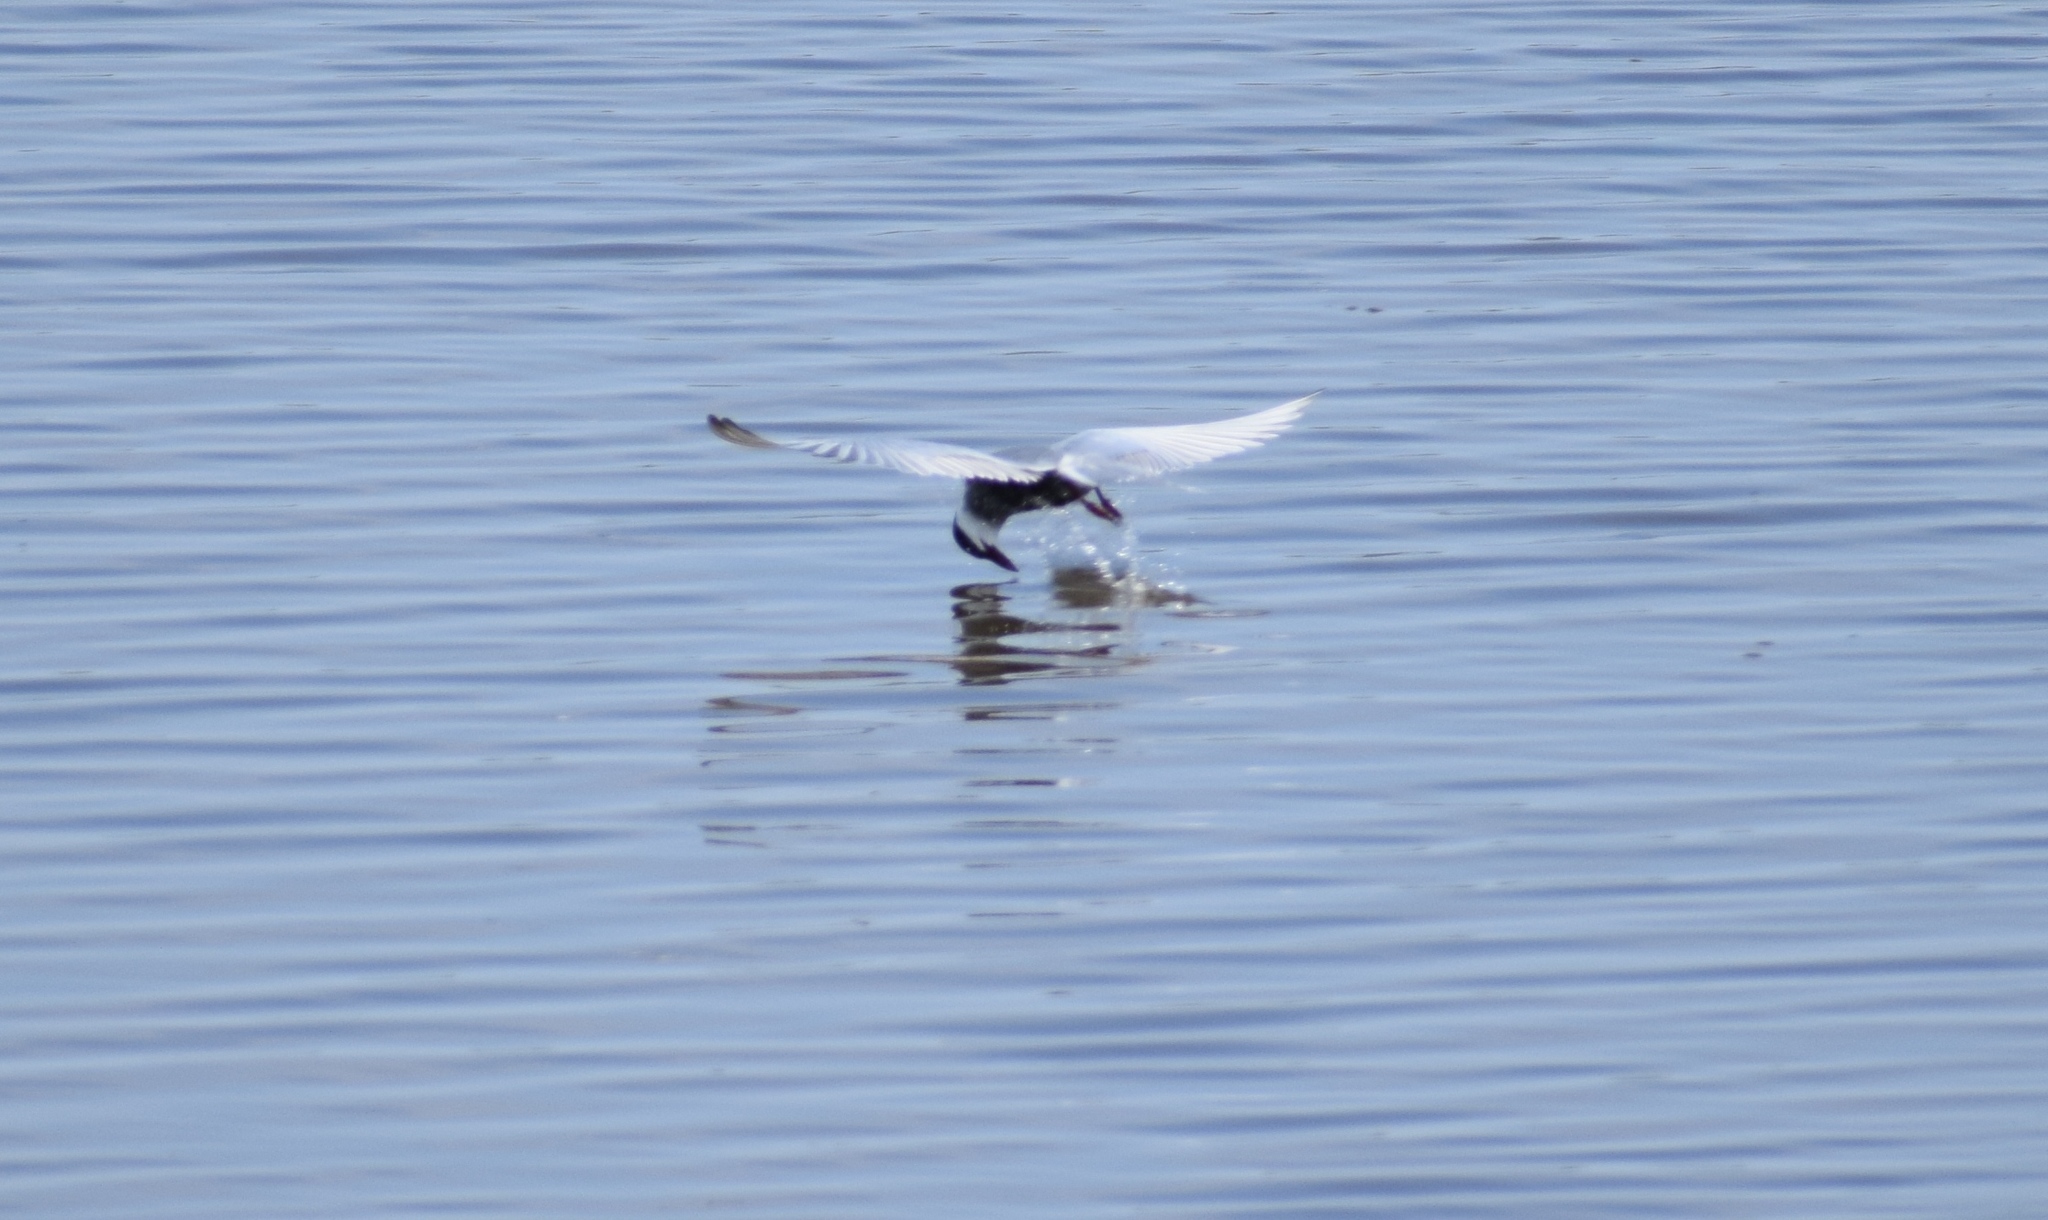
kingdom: Animalia
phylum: Chordata
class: Aves
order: Charadriiformes
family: Laridae
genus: Chlidonias
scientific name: Chlidonias hybrida
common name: Whiskered tern
